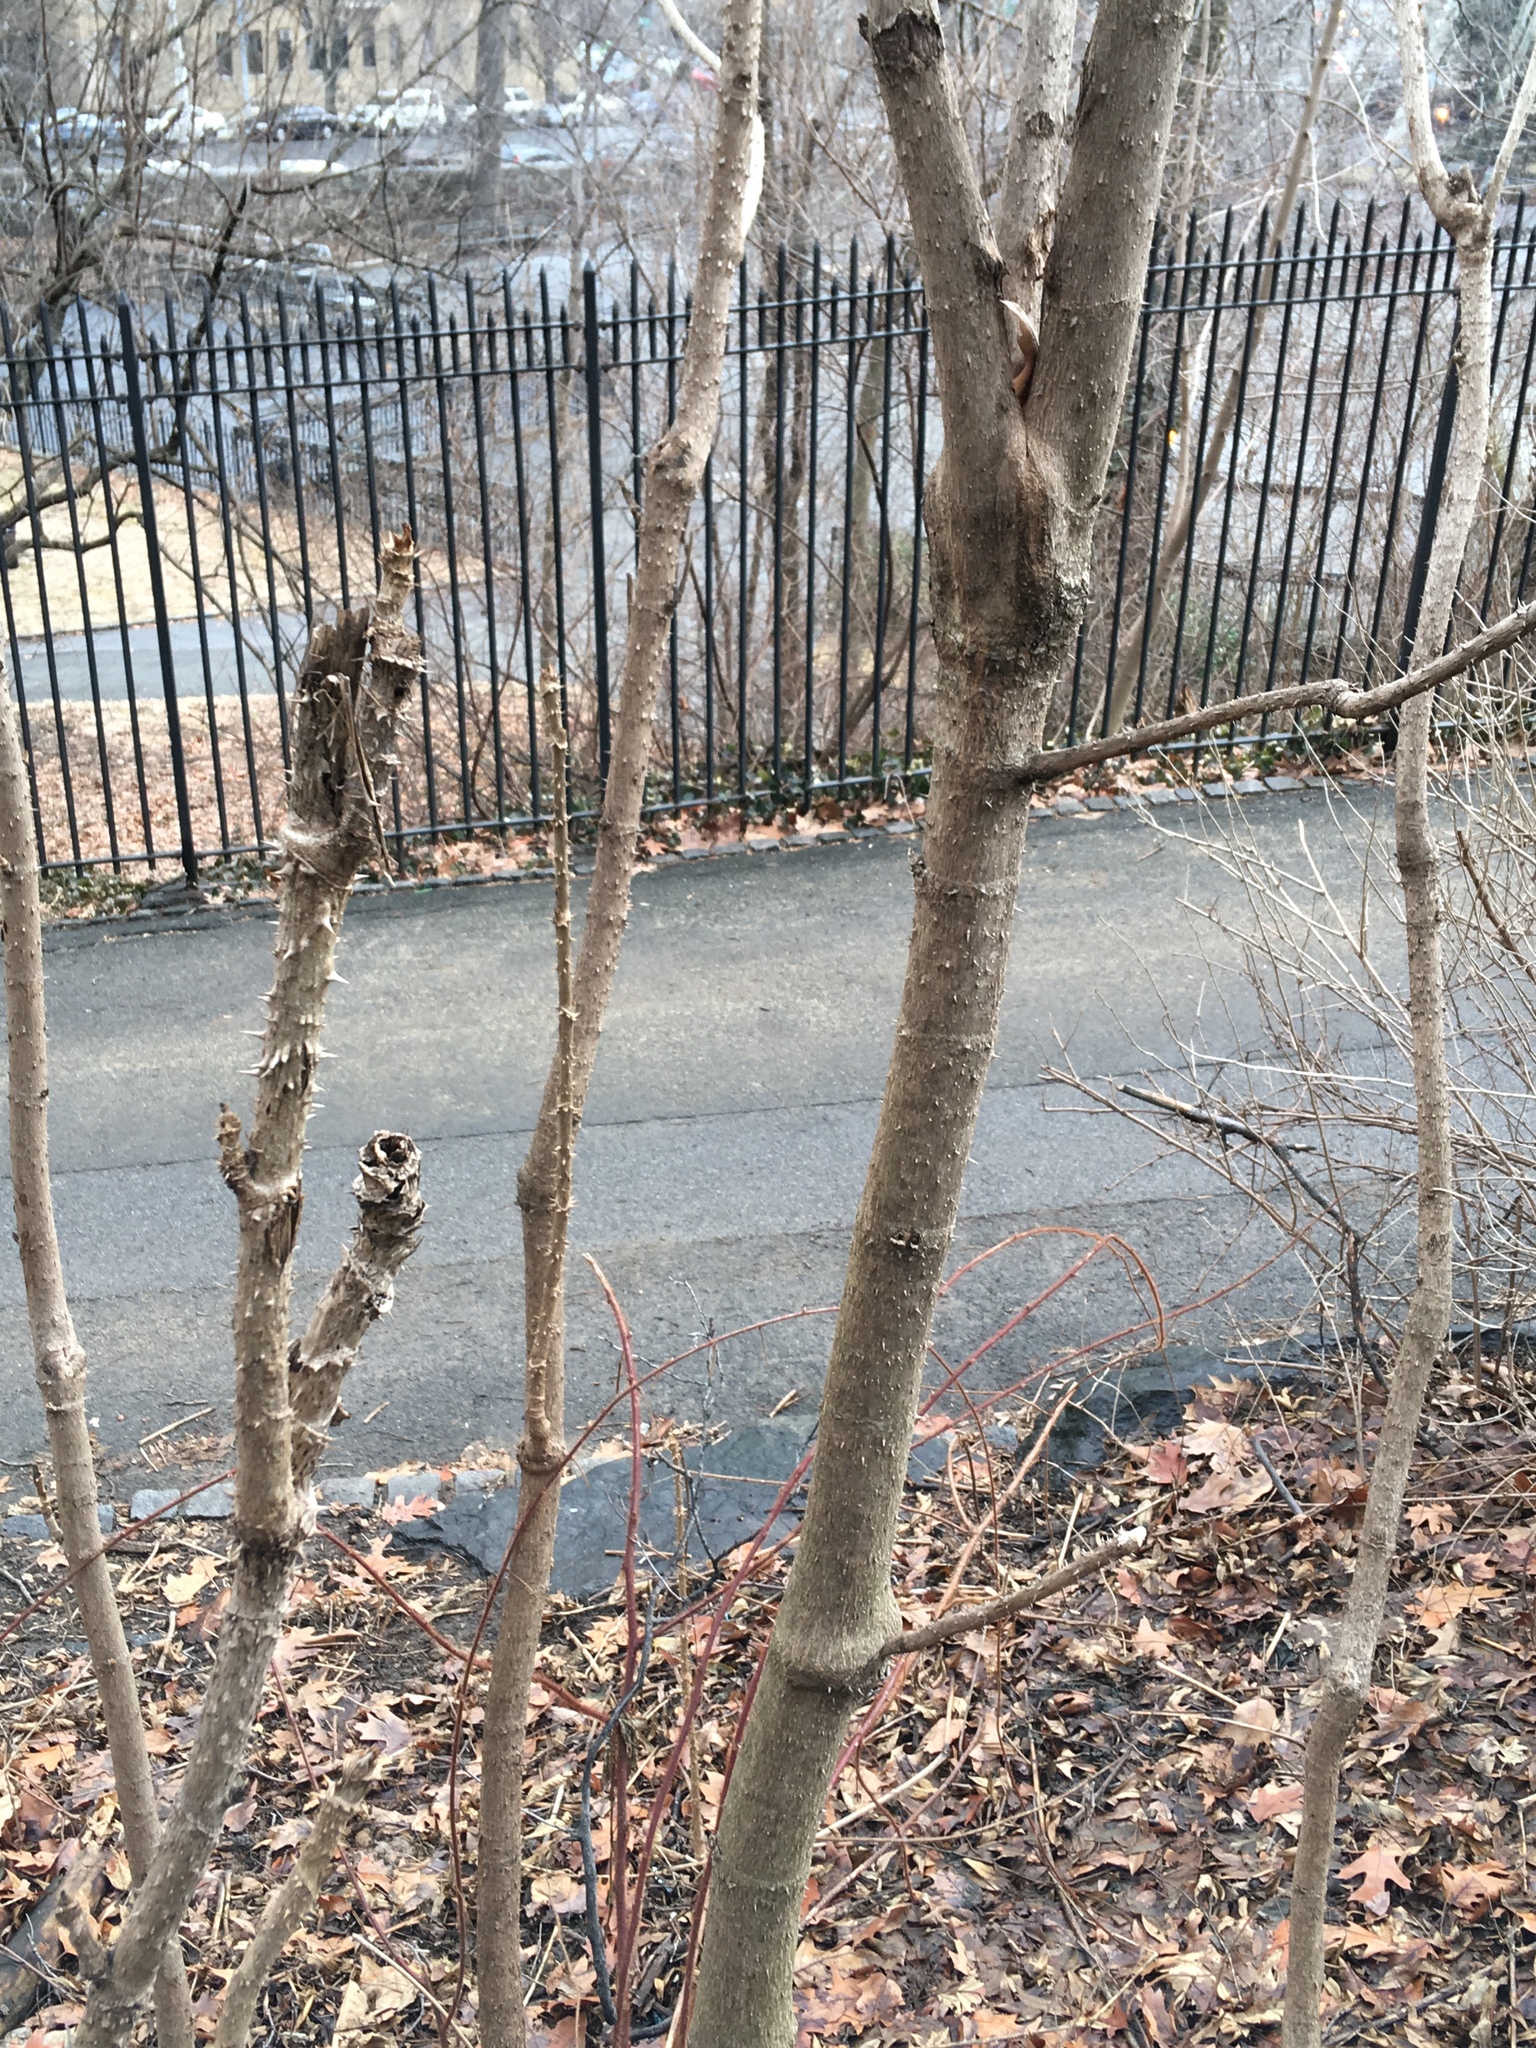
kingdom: Plantae
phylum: Tracheophyta
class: Magnoliopsida
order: Apiales
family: Araliaceae
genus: Aralia
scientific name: Aralia elata
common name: Japanese angelica-tree
